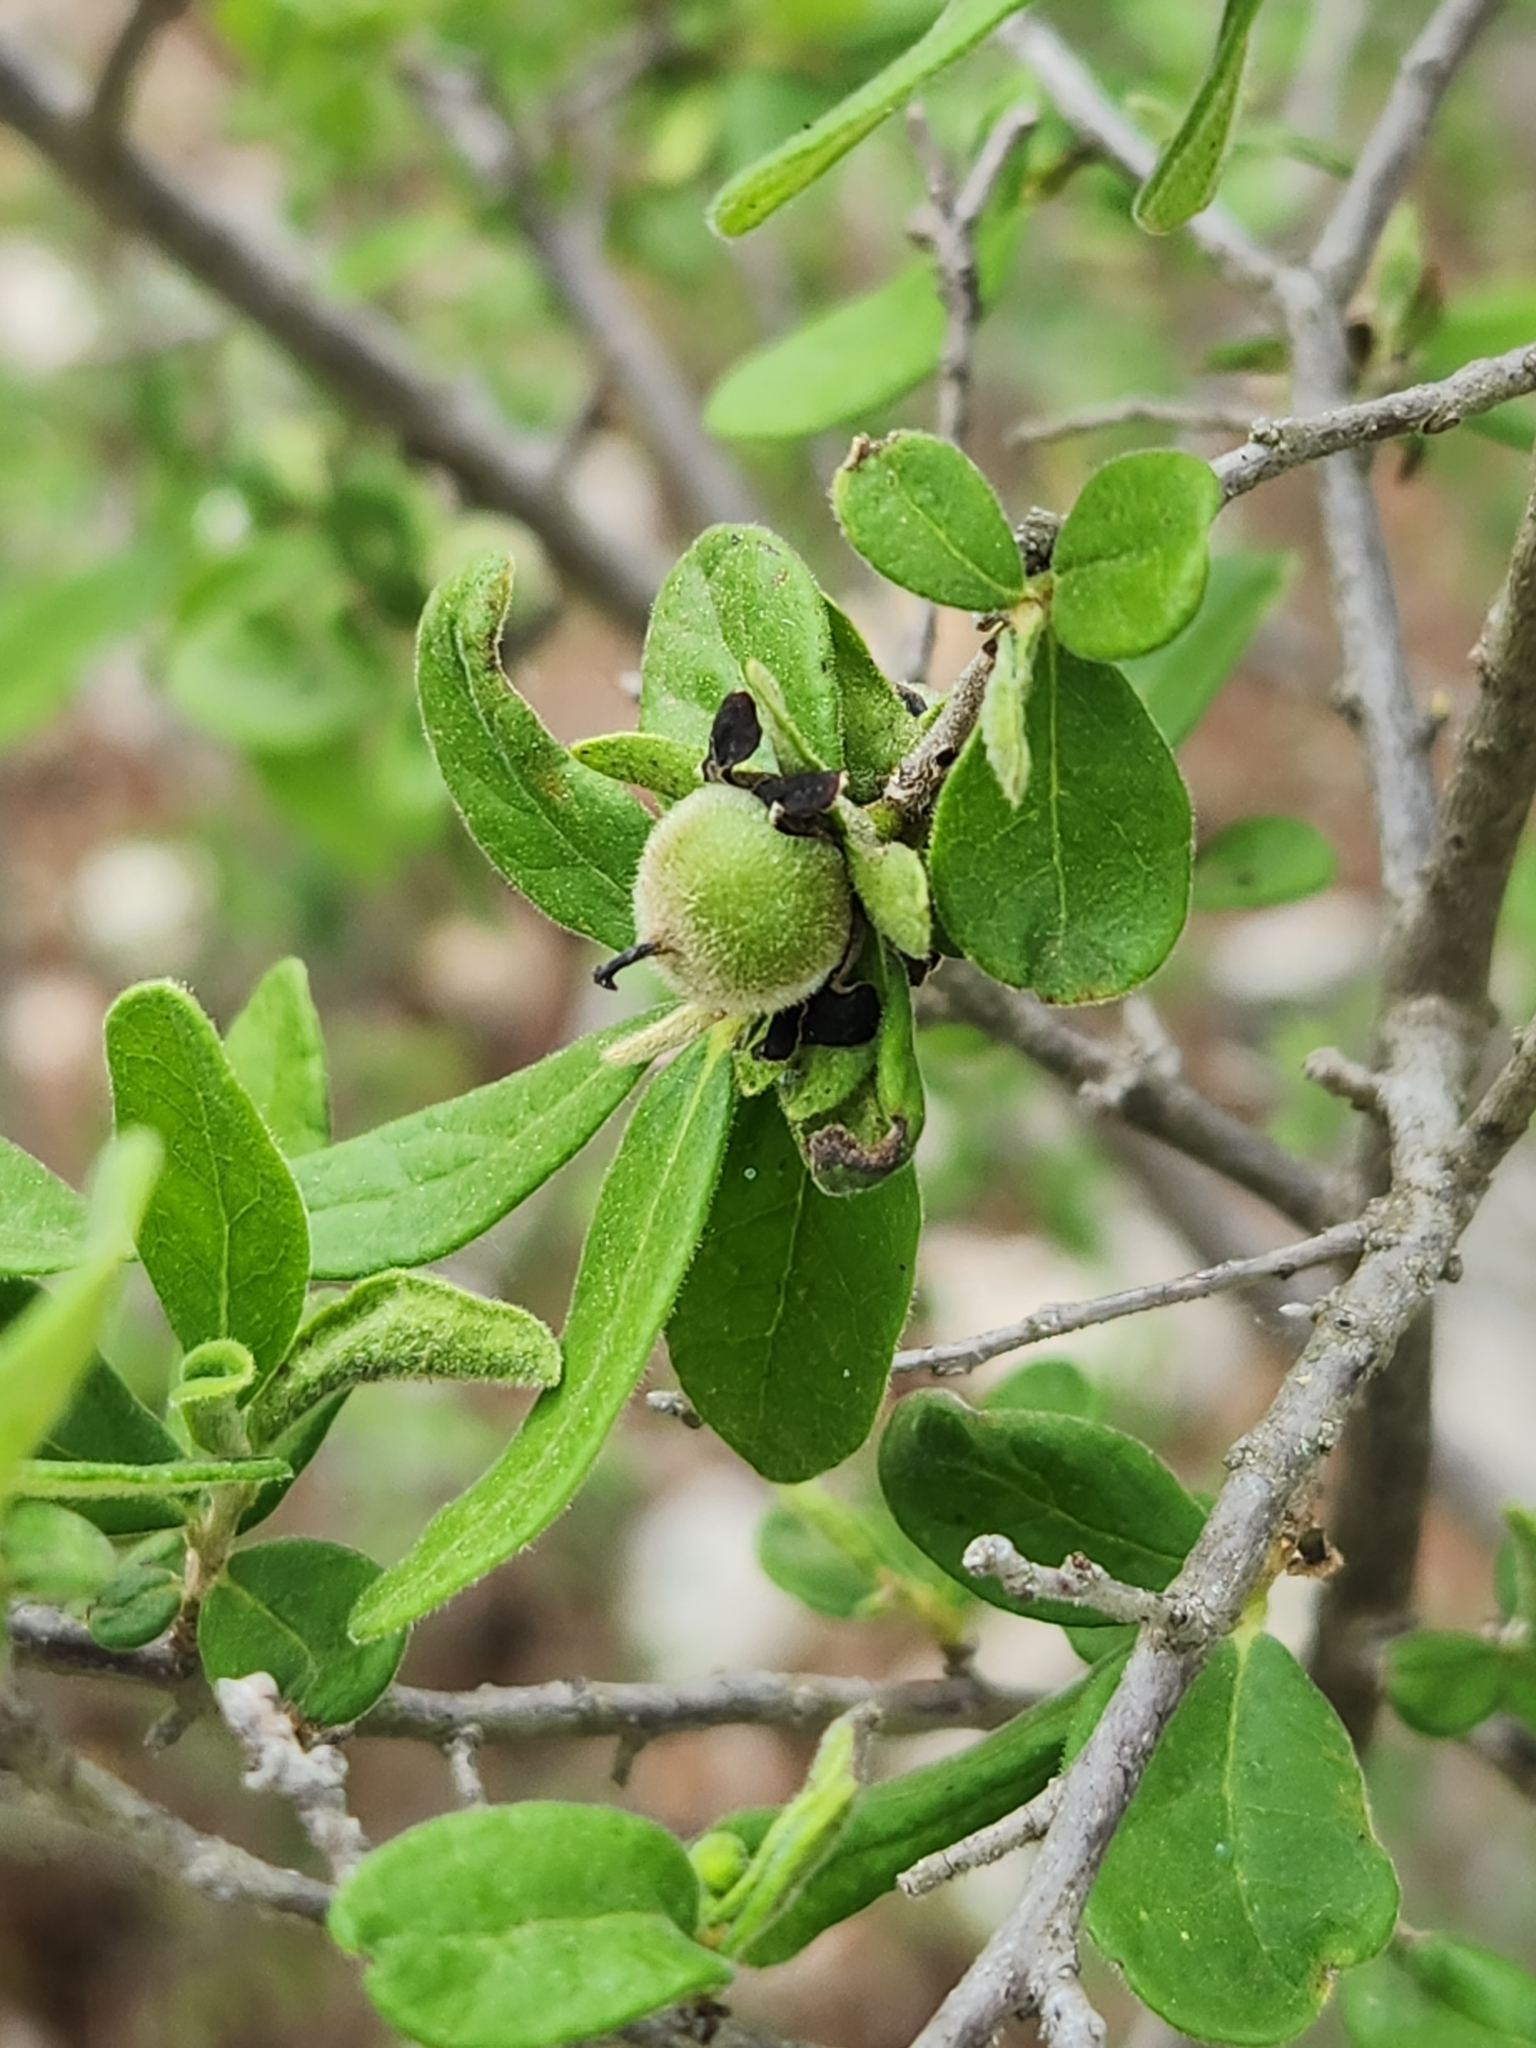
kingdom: Plantae
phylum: Tracheophyta
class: Magnoliopsida
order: Ericales
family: Ebenaceae
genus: Diospyros
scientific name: Diospyros texana
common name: Texas persimmon
